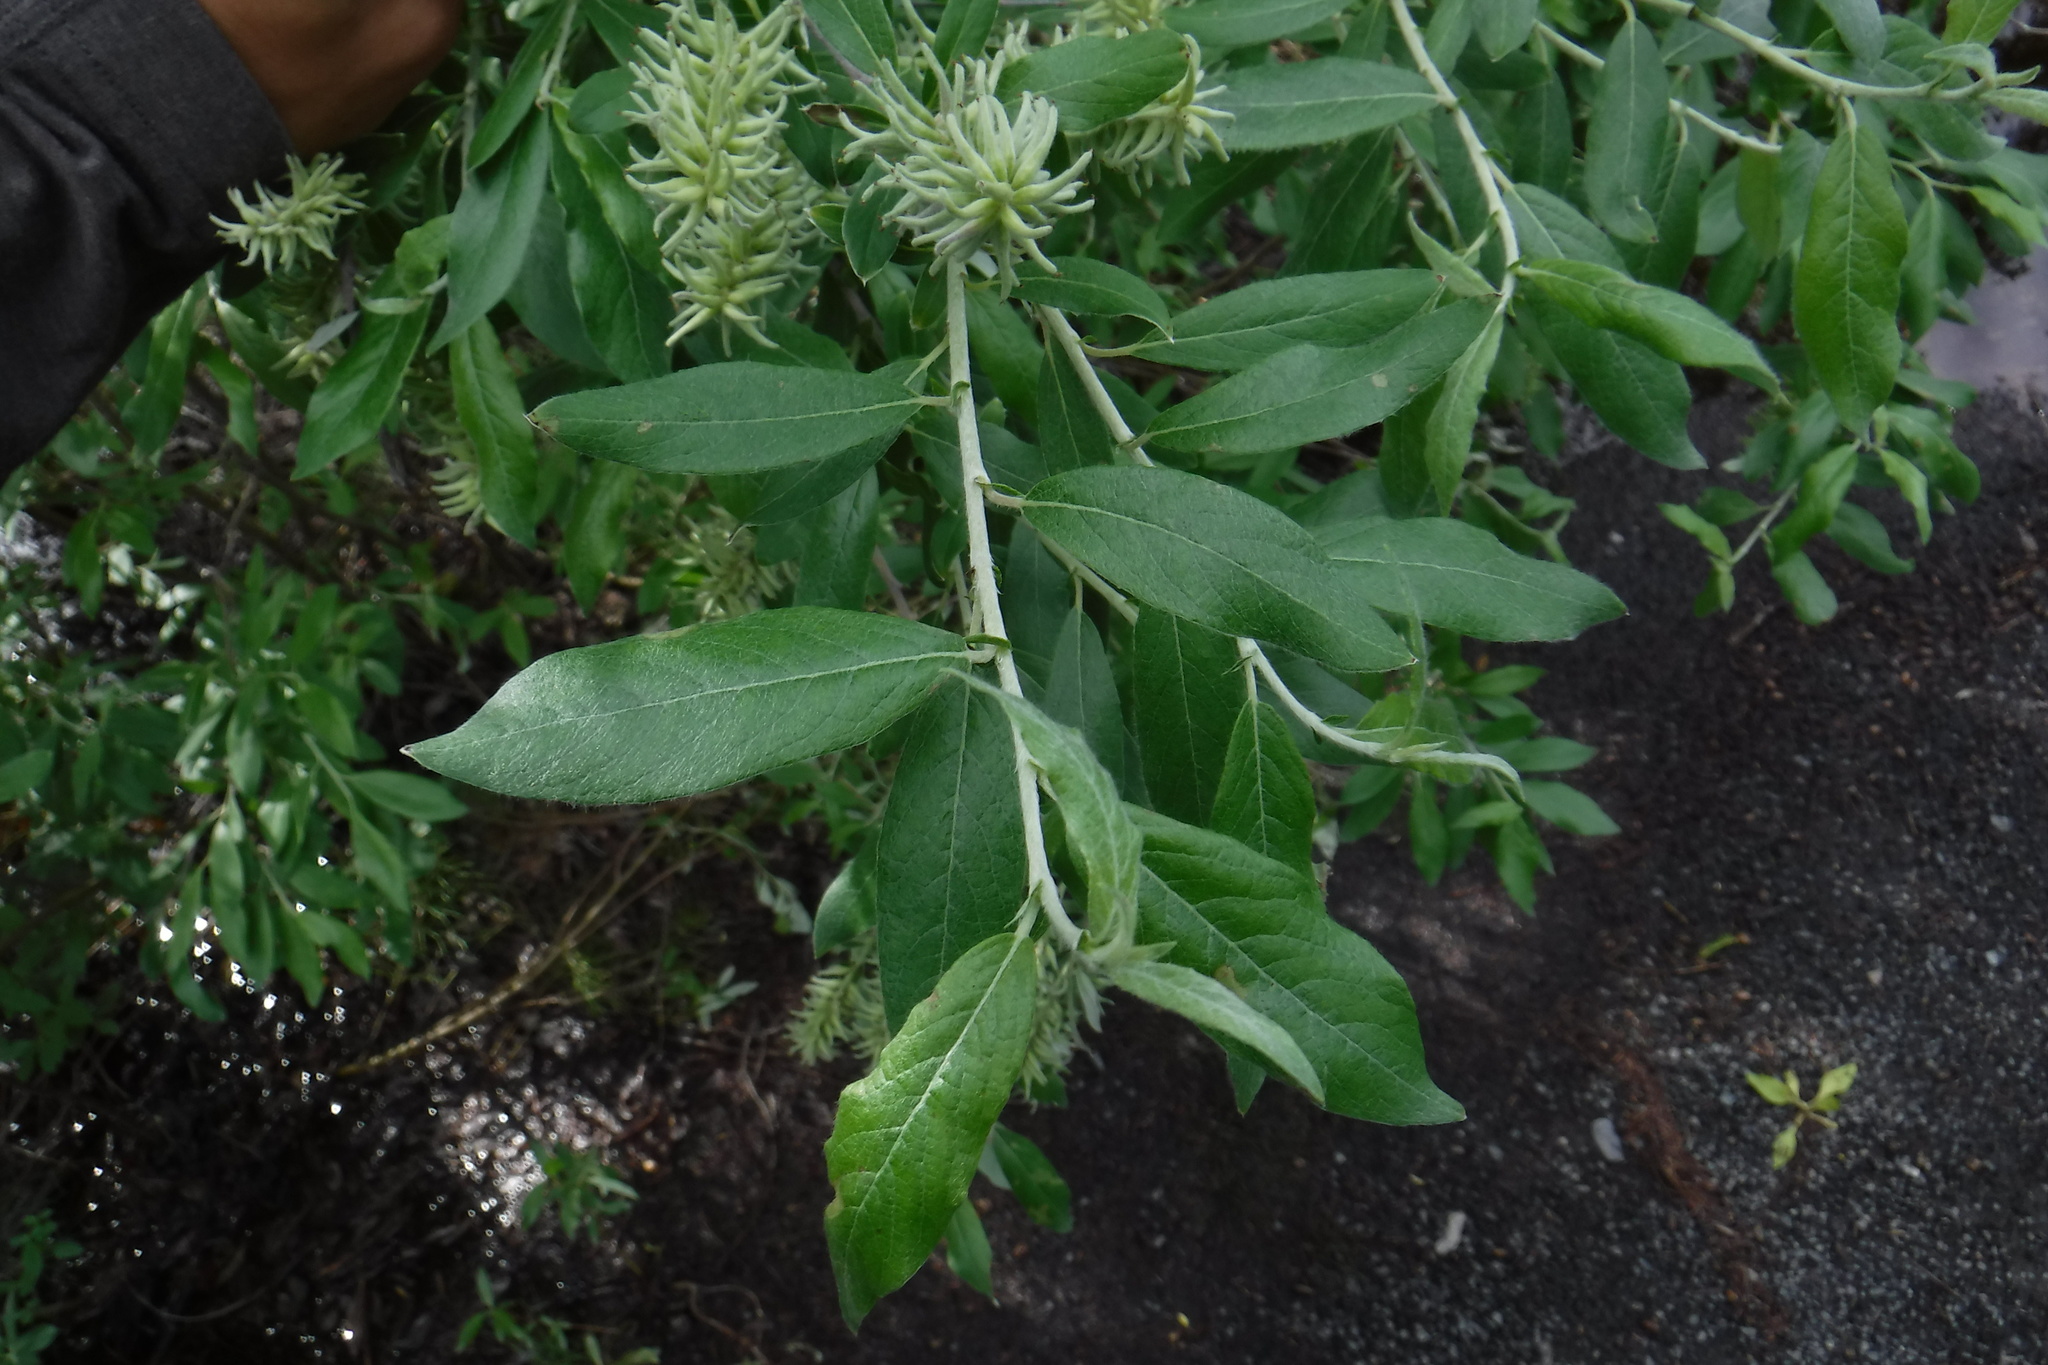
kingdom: Plantae
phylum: Tracheophyta
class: Magnoliopsida
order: Malpighiales
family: Salicaceae
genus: Salix
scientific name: Salix glauca
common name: Glaucous willow
